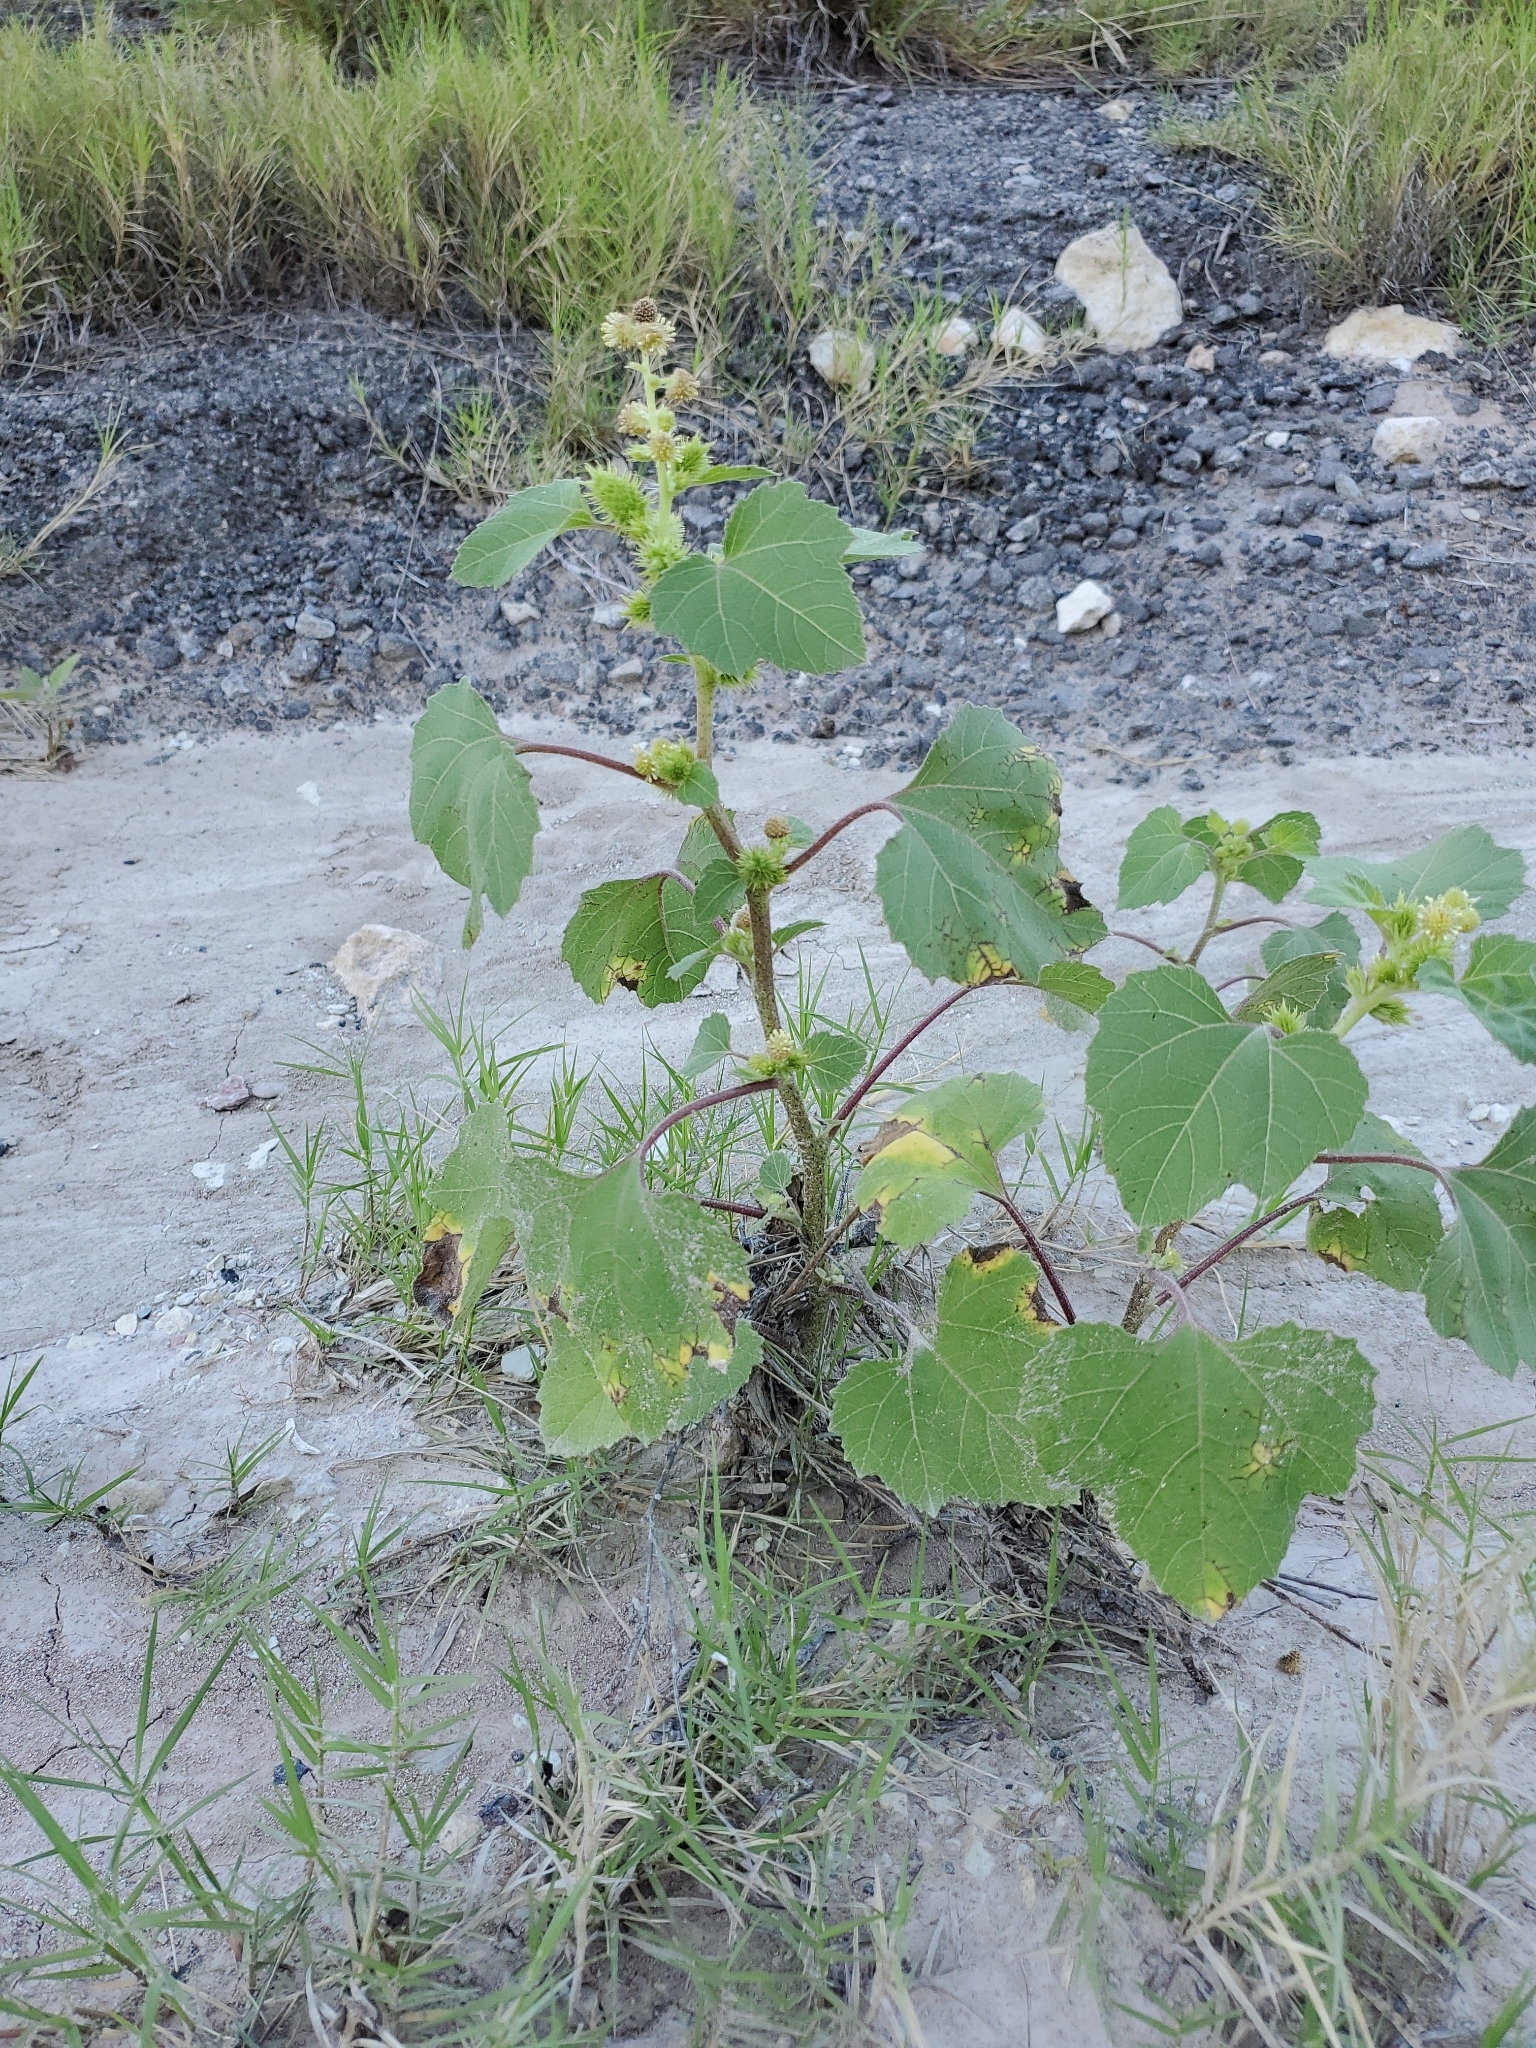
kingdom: Plantae
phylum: Tracheophyta
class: Magnoliopsida
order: Asterales
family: Asteraceae
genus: Xanthium
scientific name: Xanthium strumarium
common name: Rough cocklebur
